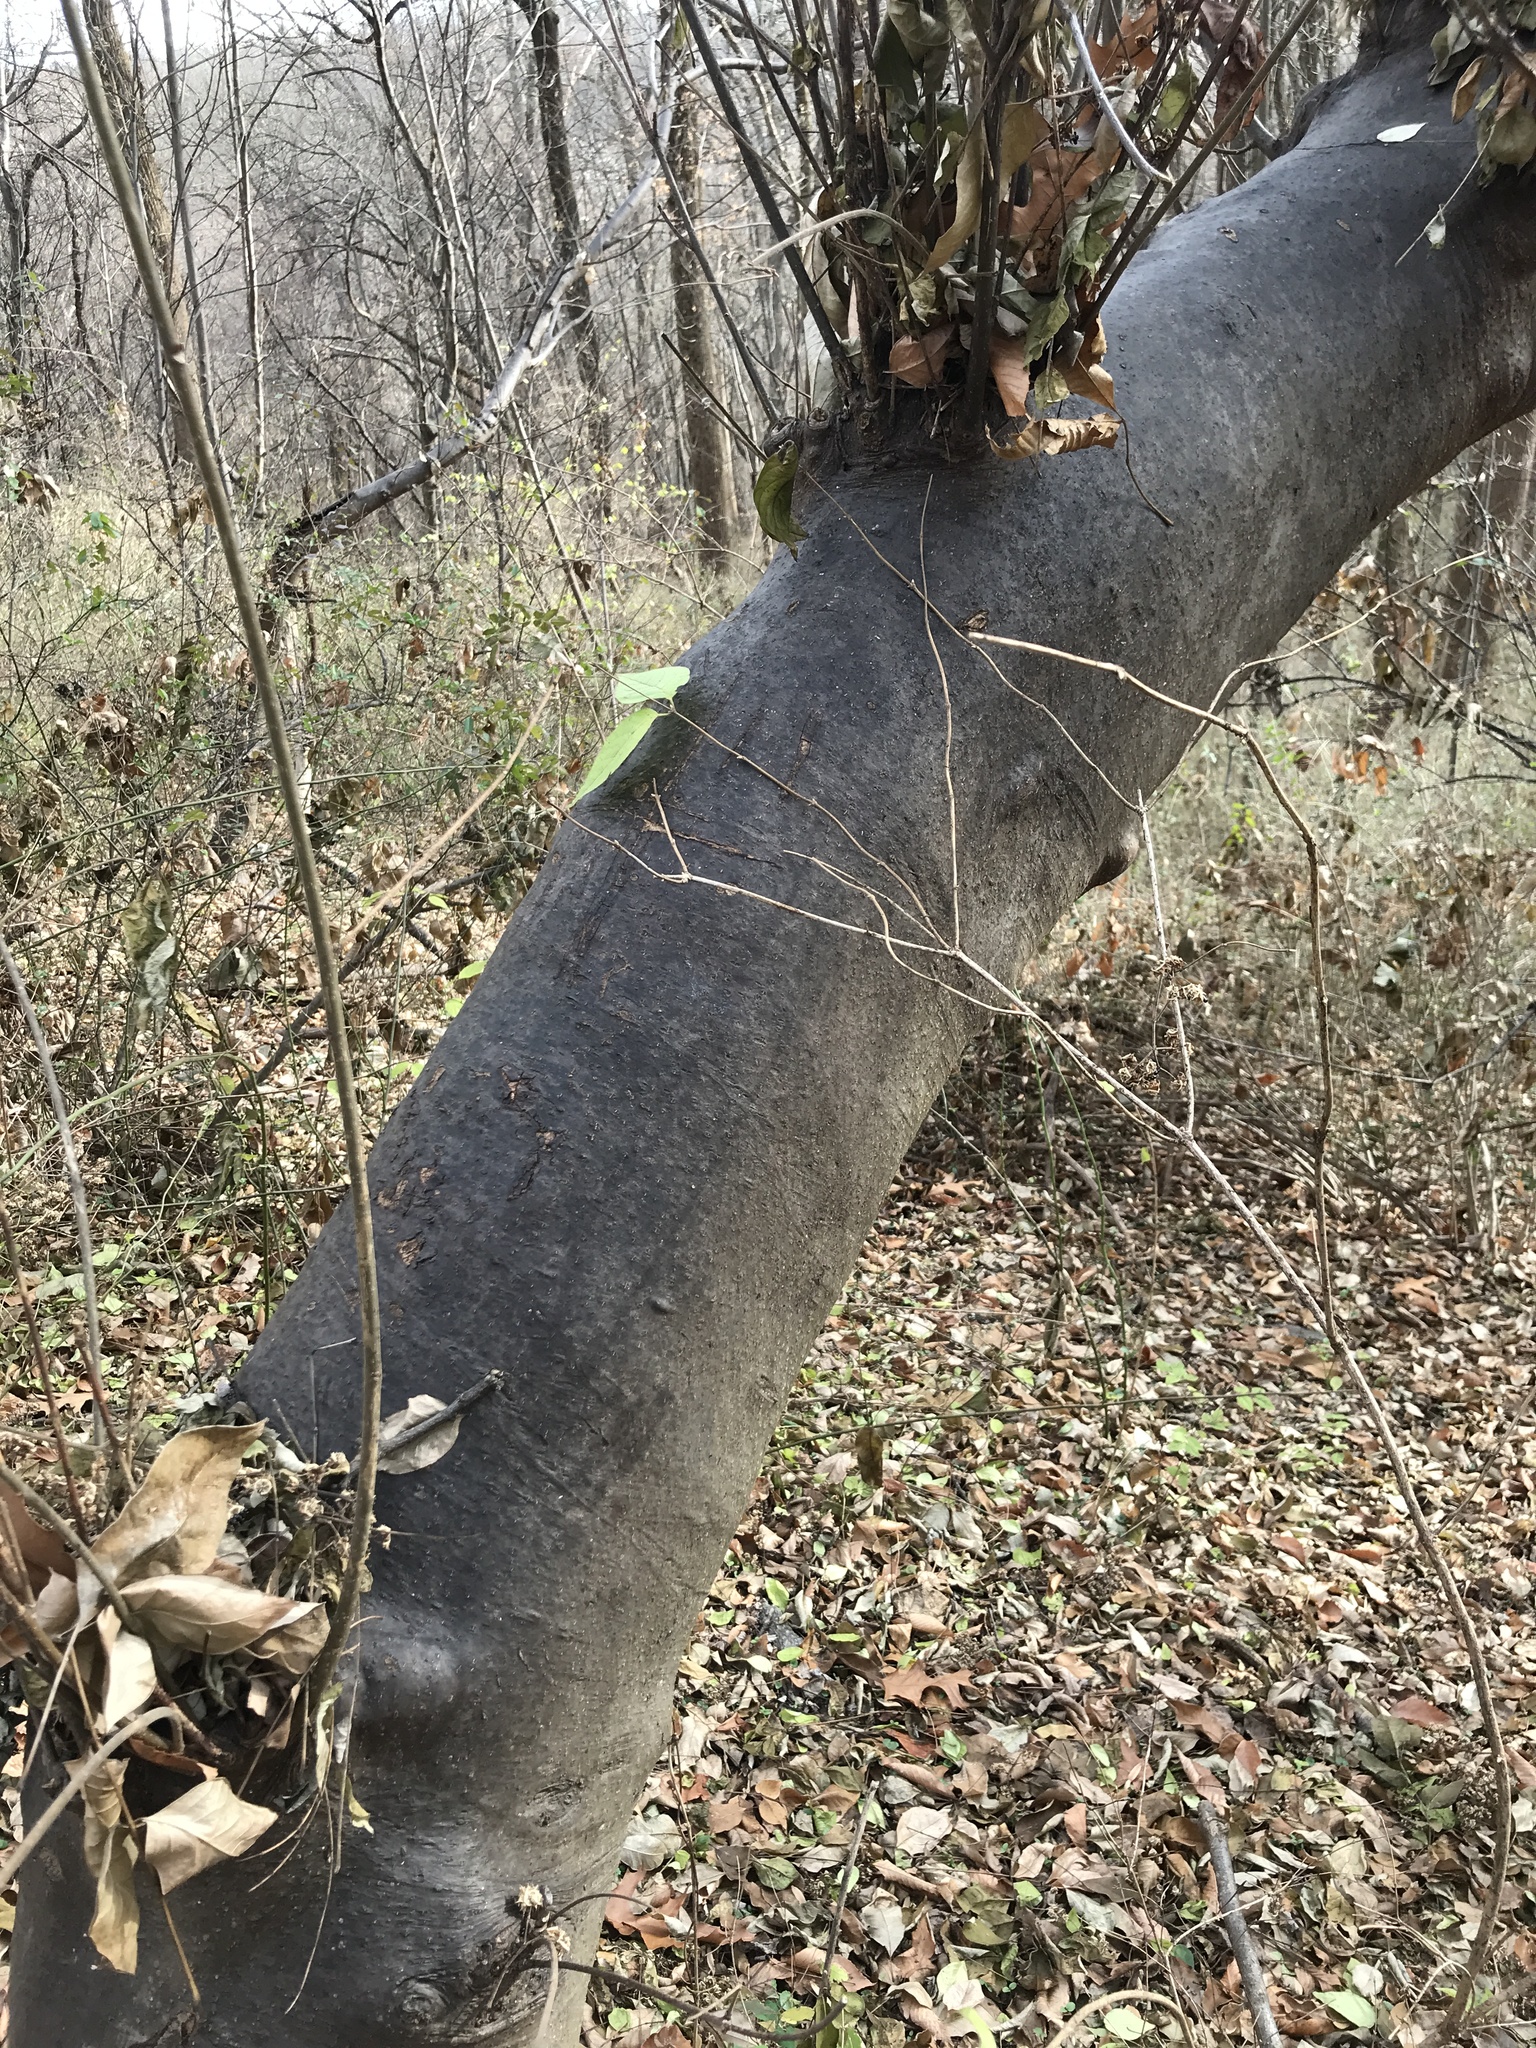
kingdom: Plantae
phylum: Tracheophyta
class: Magnoliopsida
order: Sapindales
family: Rutaceae
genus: Tetradium
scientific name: Tetradium daniellii
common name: Bee-bee tree
